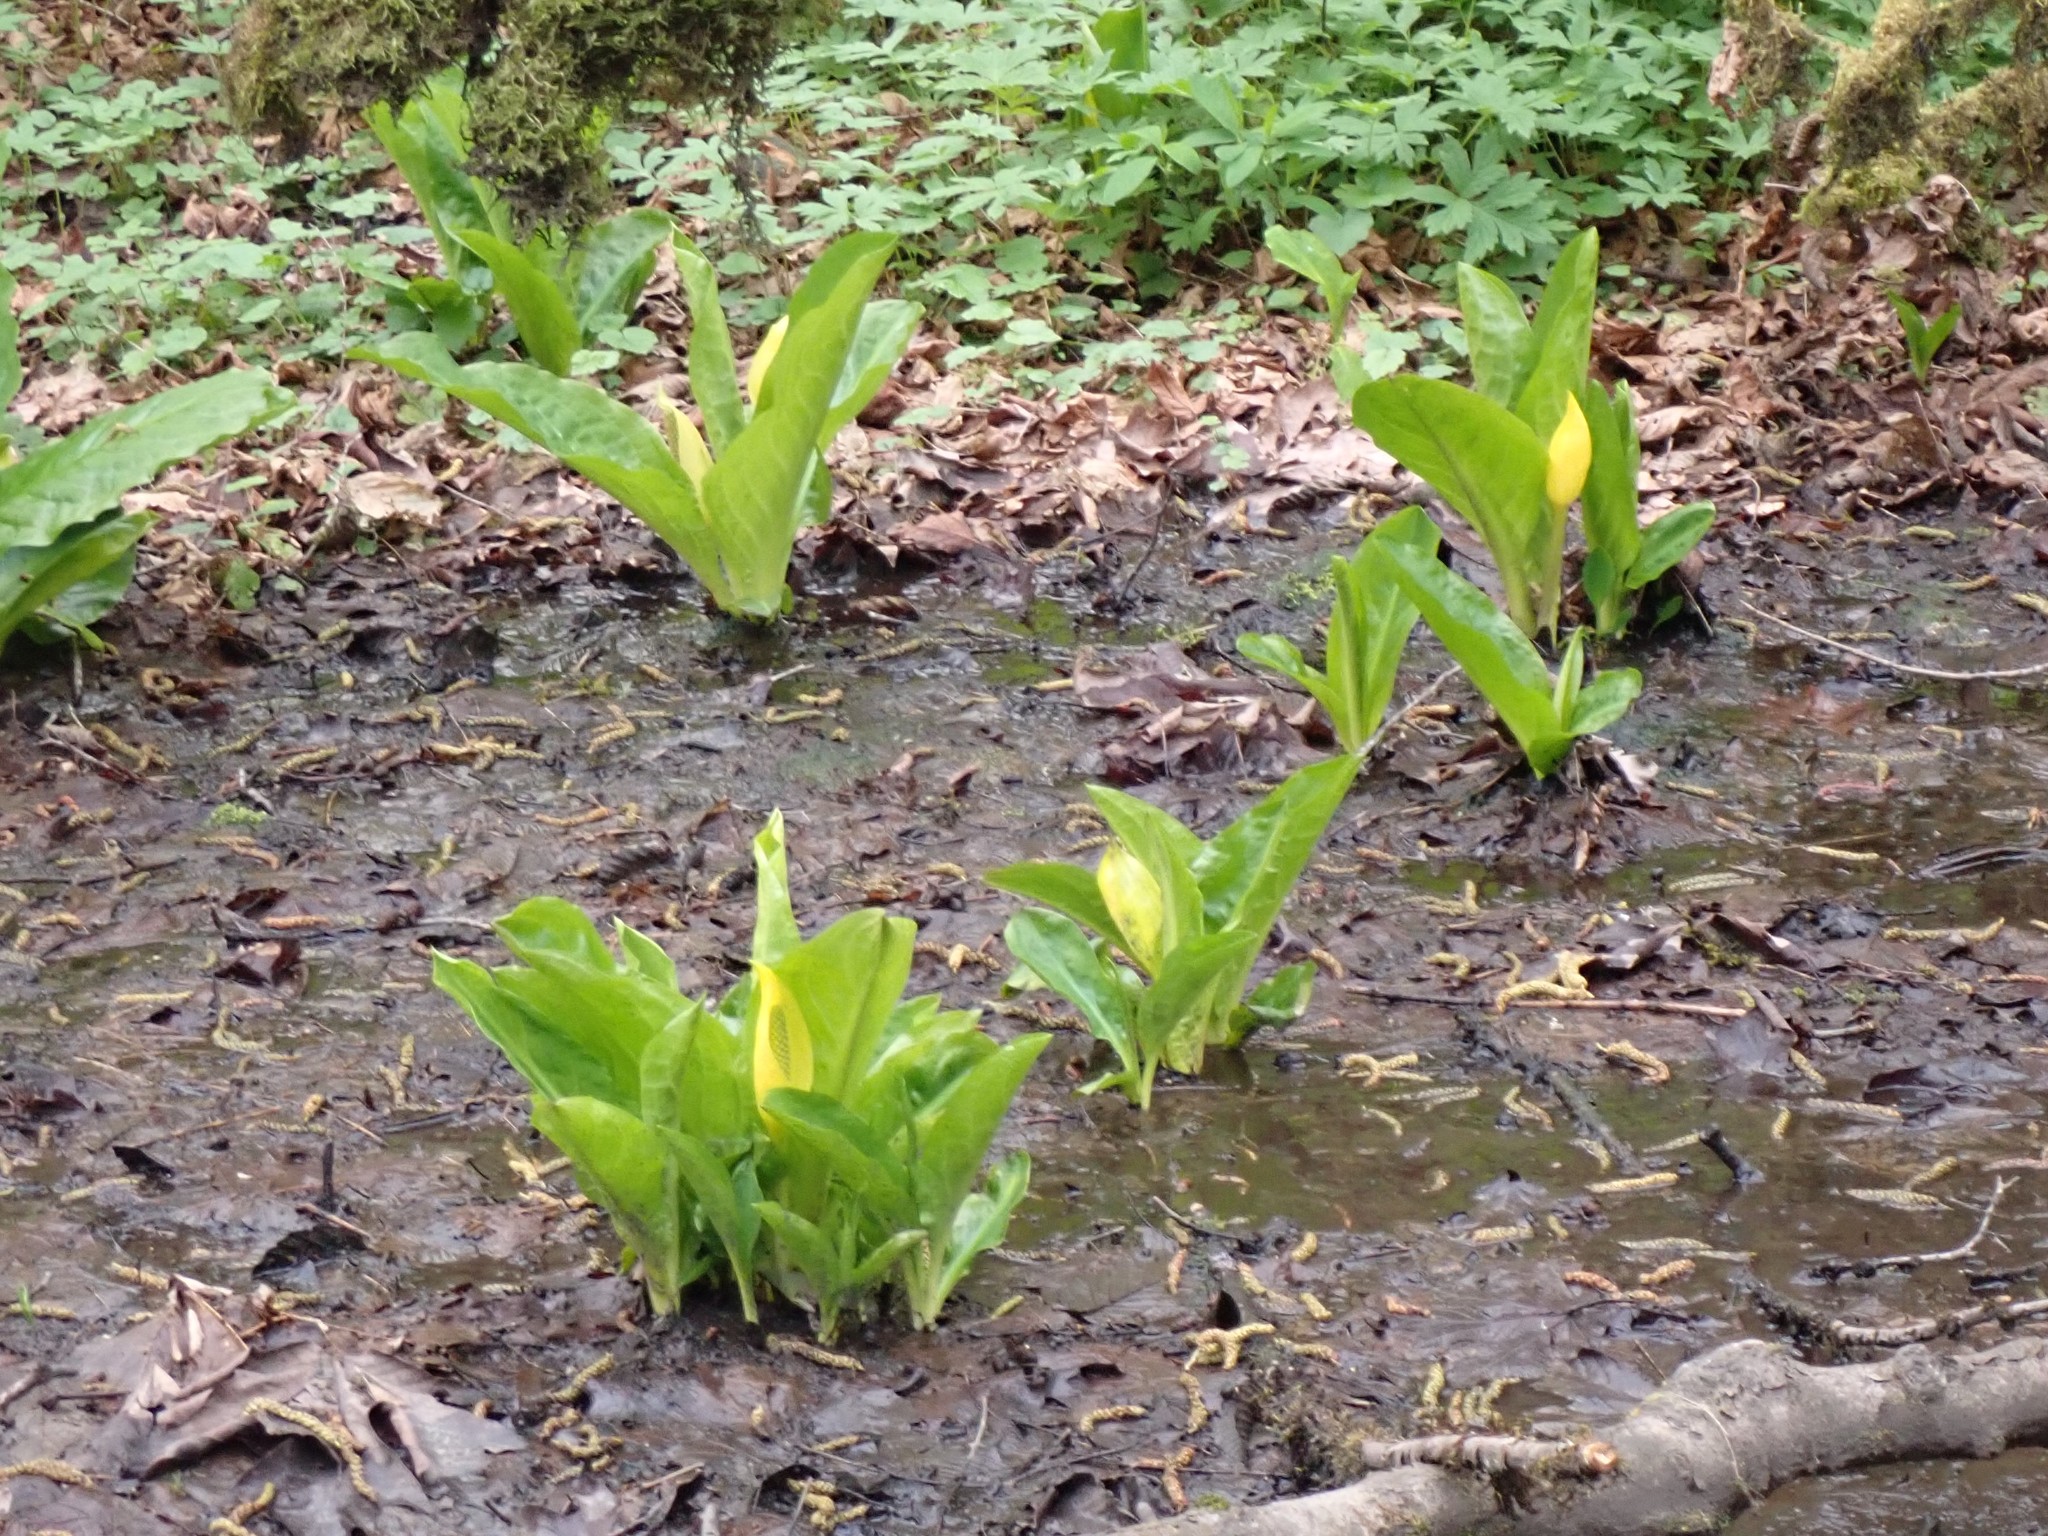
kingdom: Plantae
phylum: Tracheophyta
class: Liliopsida
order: Alismatales
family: Araceae
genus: Lysichiton
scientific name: Lysichiton americanus
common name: American skunk cabbage
